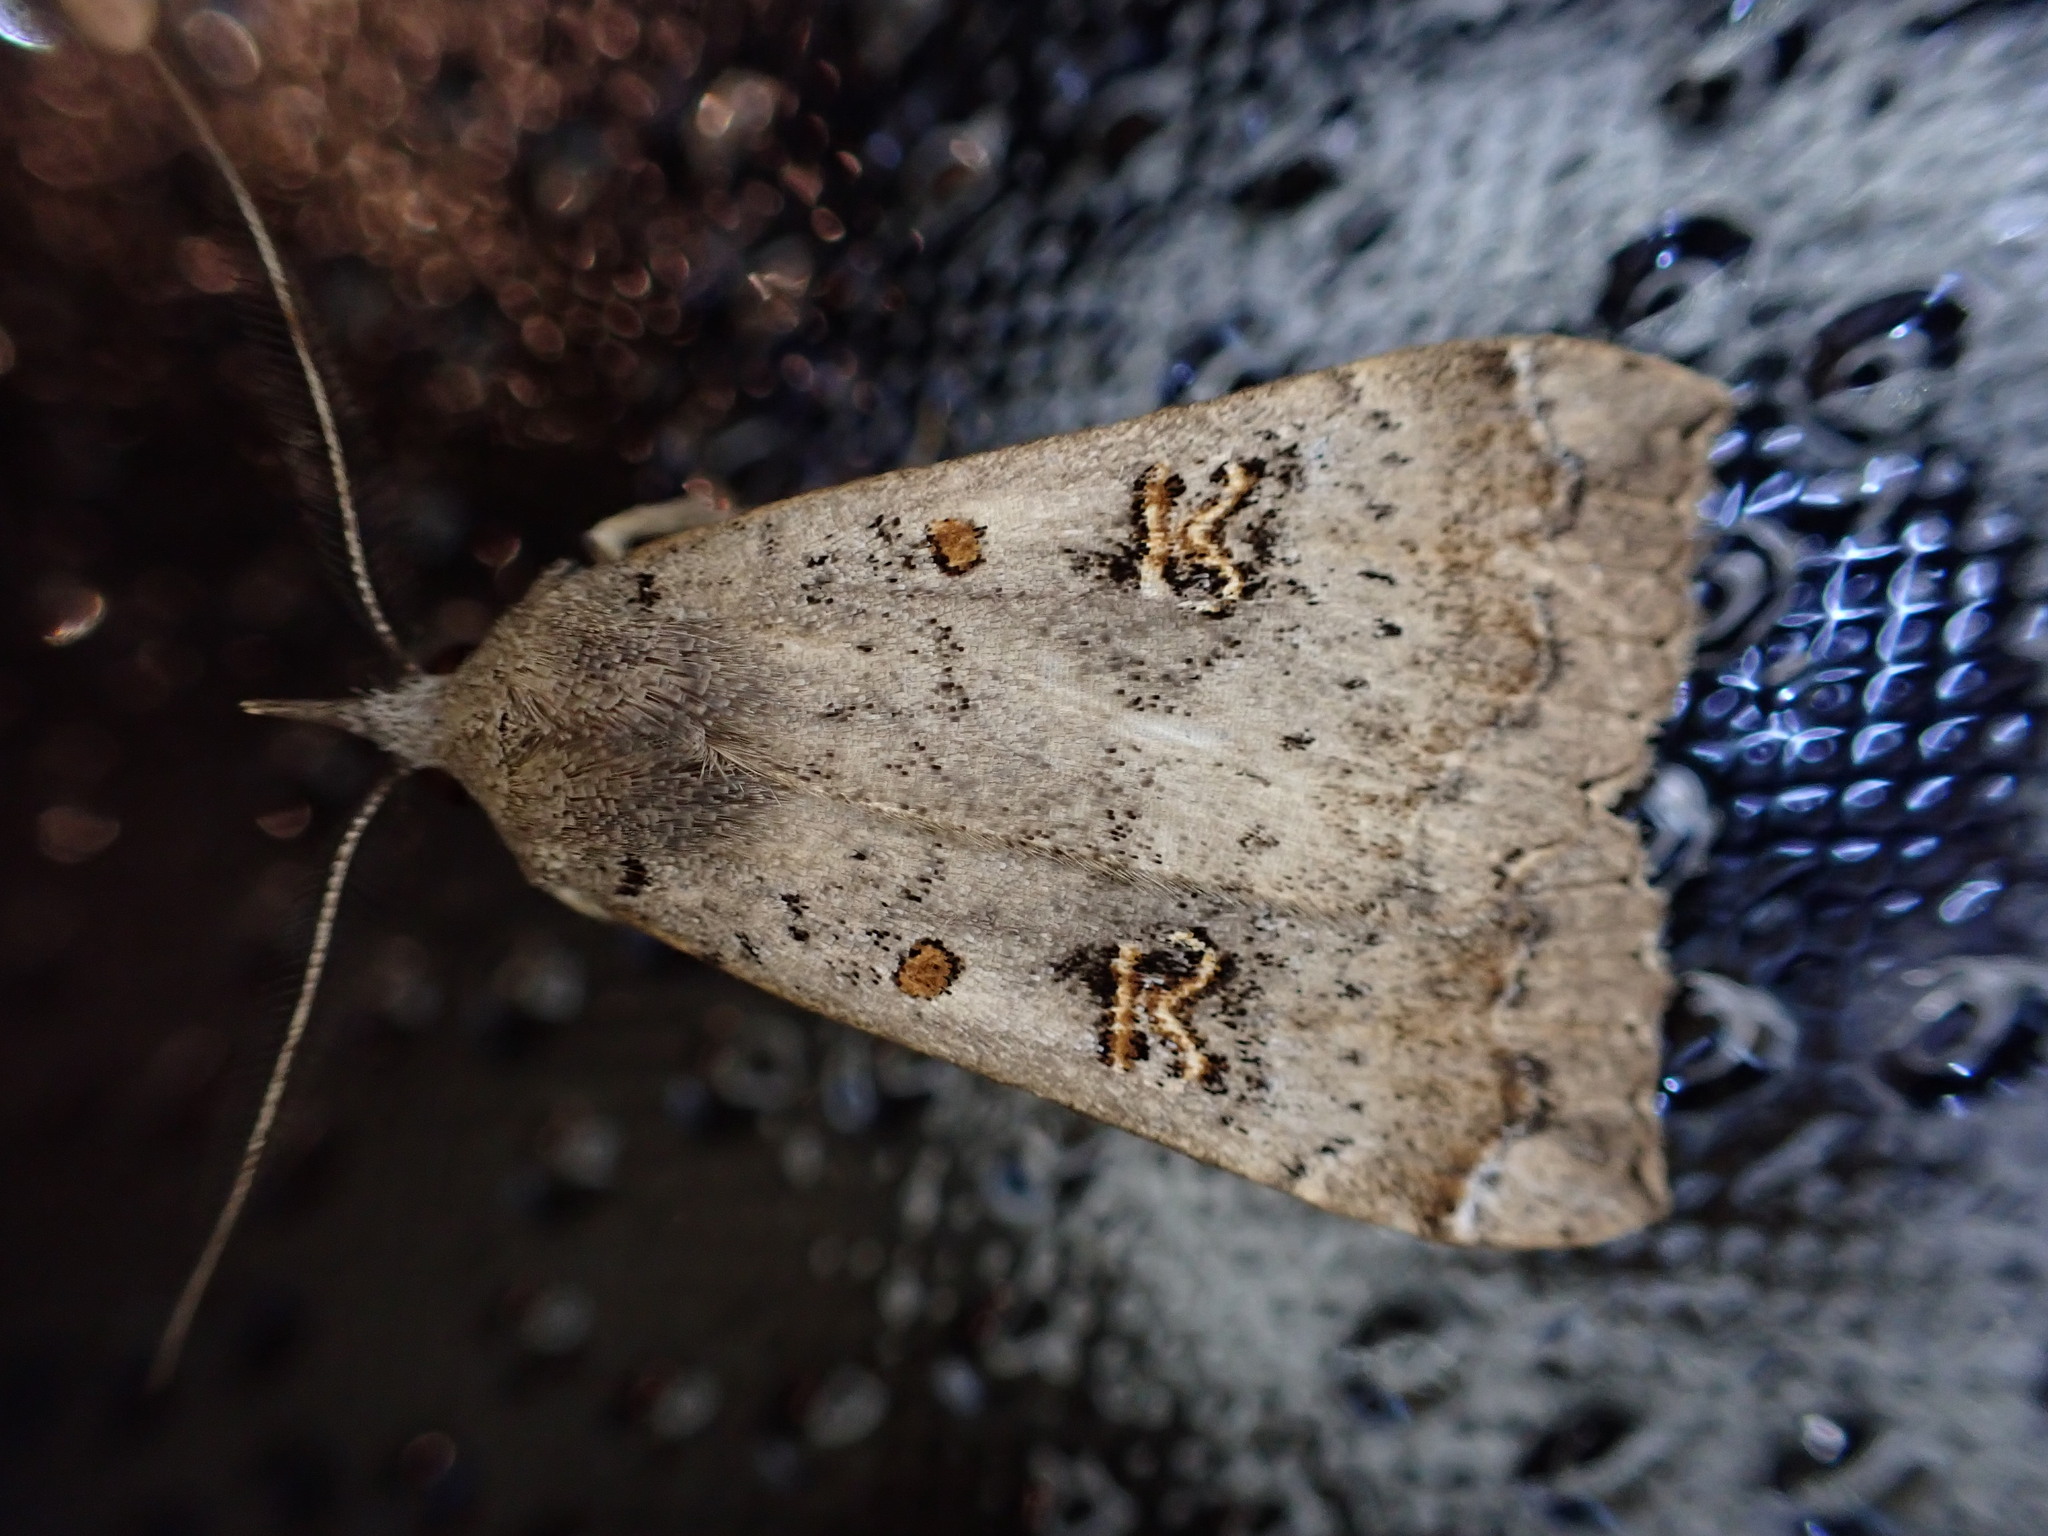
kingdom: Animalia
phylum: Arthropoda
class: Insecta
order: Lepidoptera
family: Erebidae
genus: Rhapsa
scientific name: Rhapsa scotosialis
